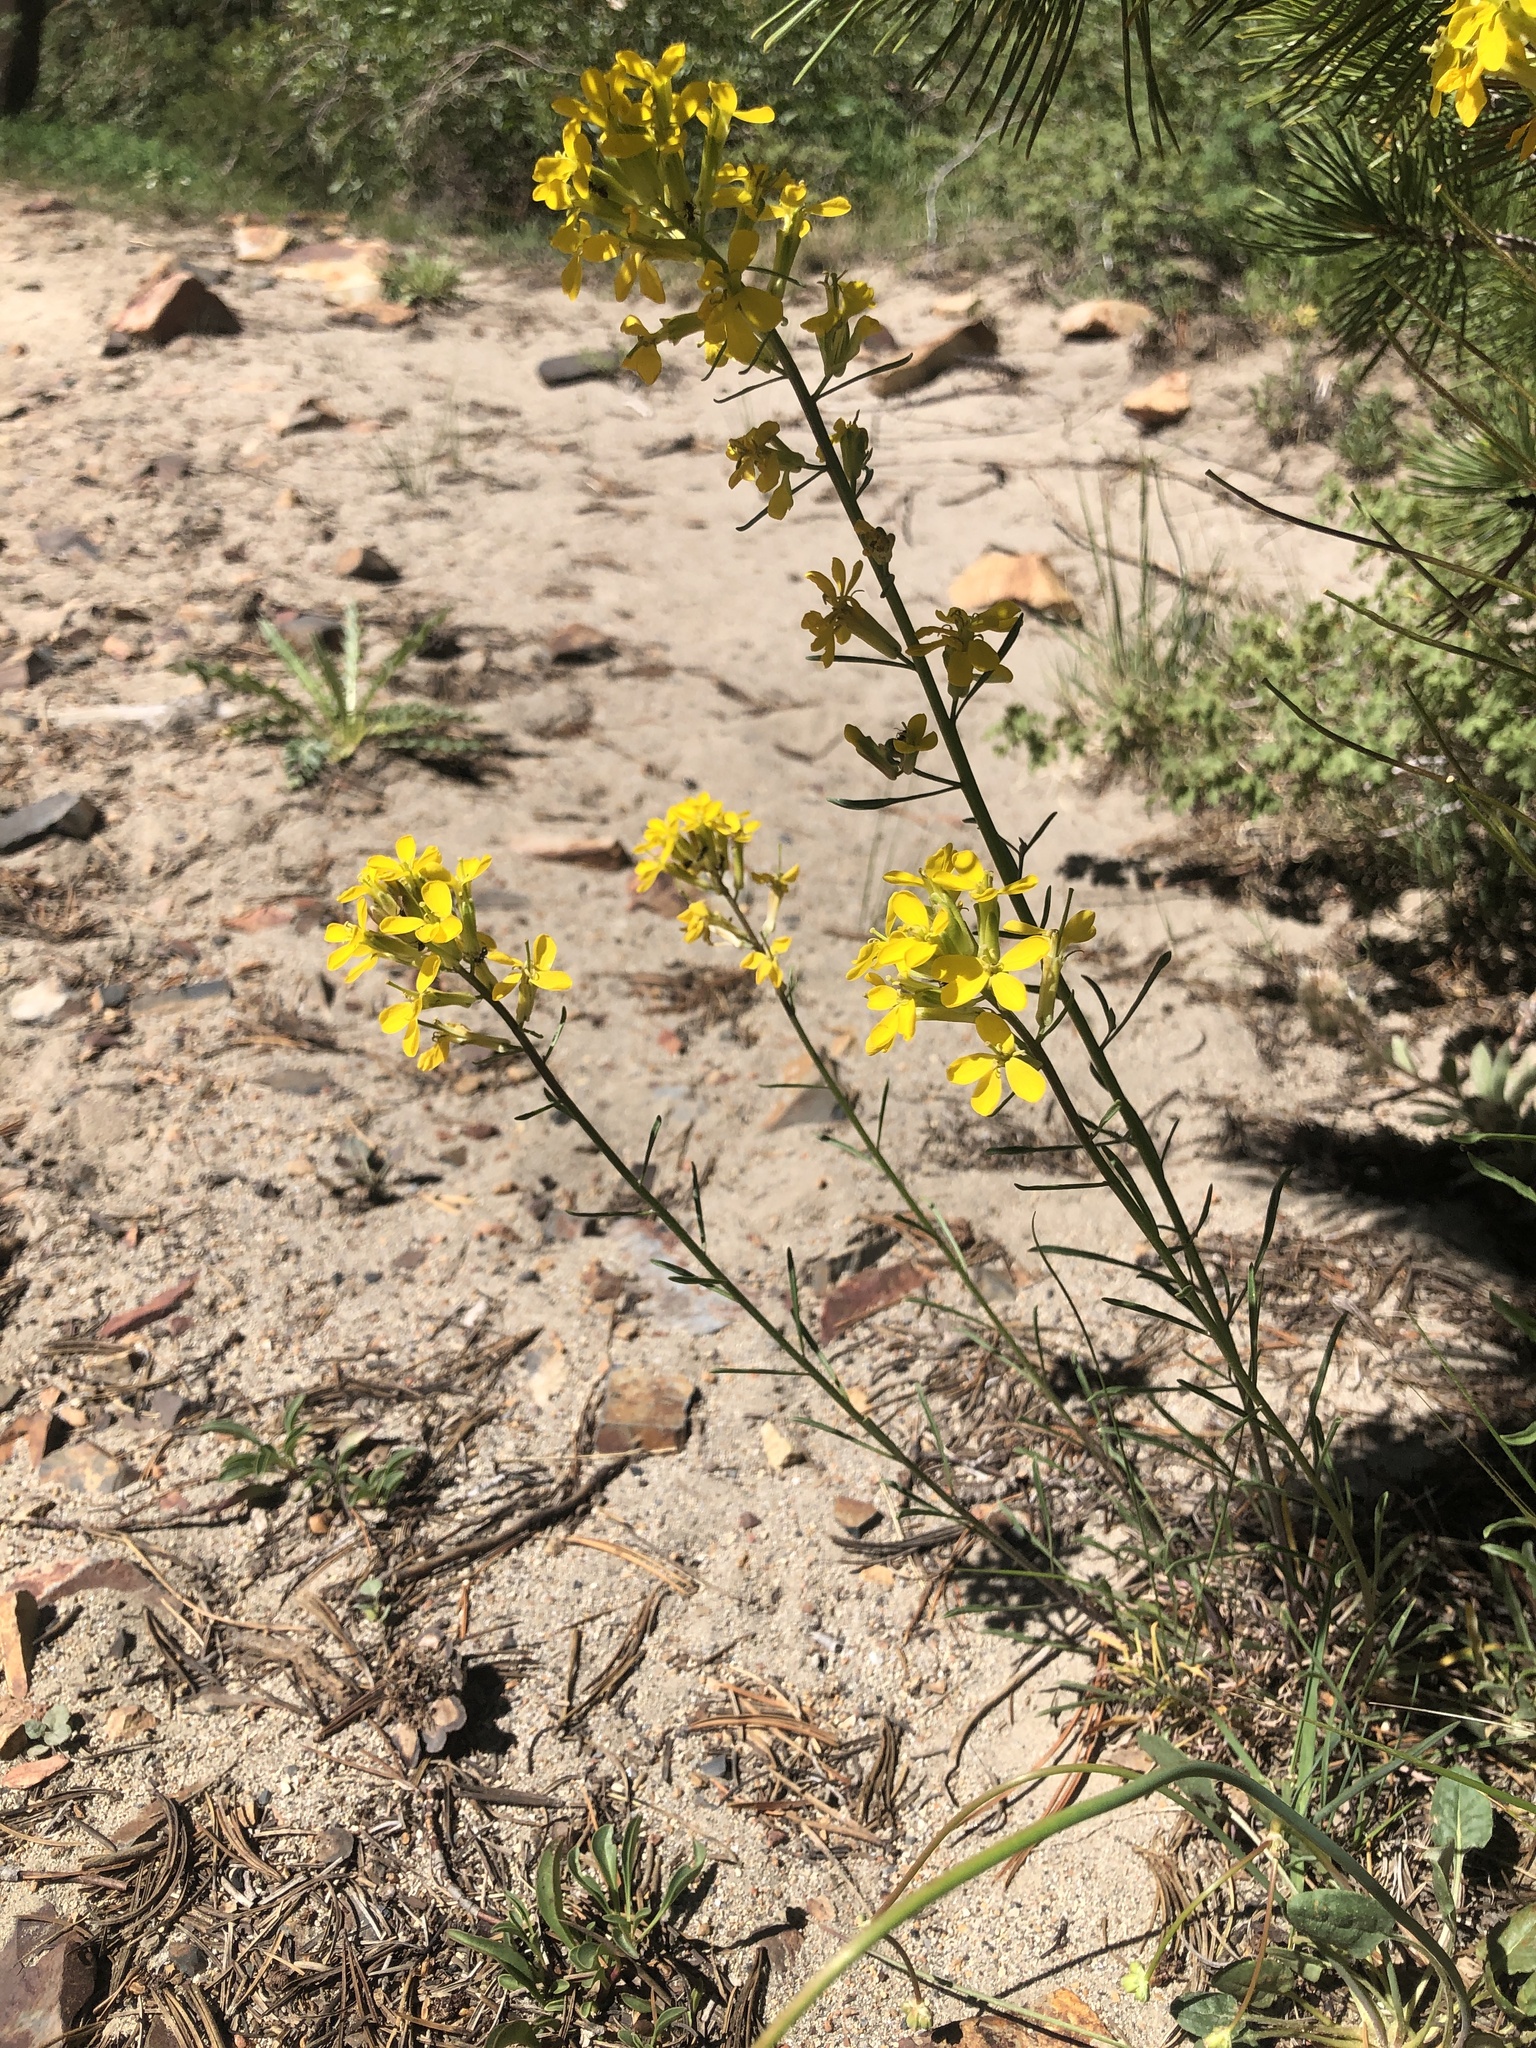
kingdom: Plantae
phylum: Tracheophyta
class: Magnoliopsida
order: Brassicales
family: Brassicaceae
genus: Erysimum
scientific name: Erysimum capitatum
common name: Western wallflower
